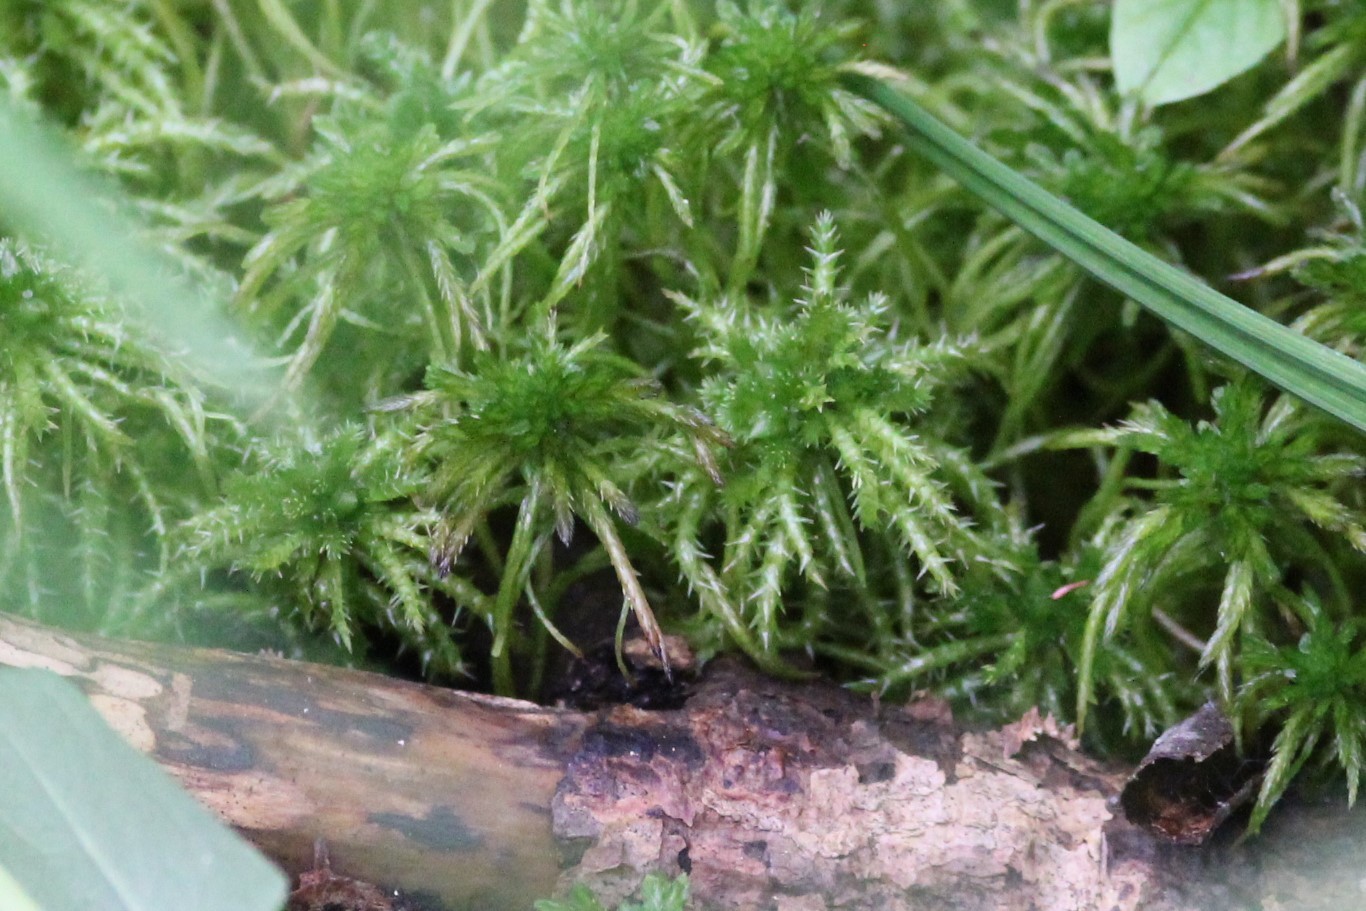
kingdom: Plantae
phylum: Bryophyta
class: Sphagnopsida
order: Sphagnales
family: Sphagnaceae
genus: Sphagnum
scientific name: Sphagnum squarrosum
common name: Shaggy peat moss
